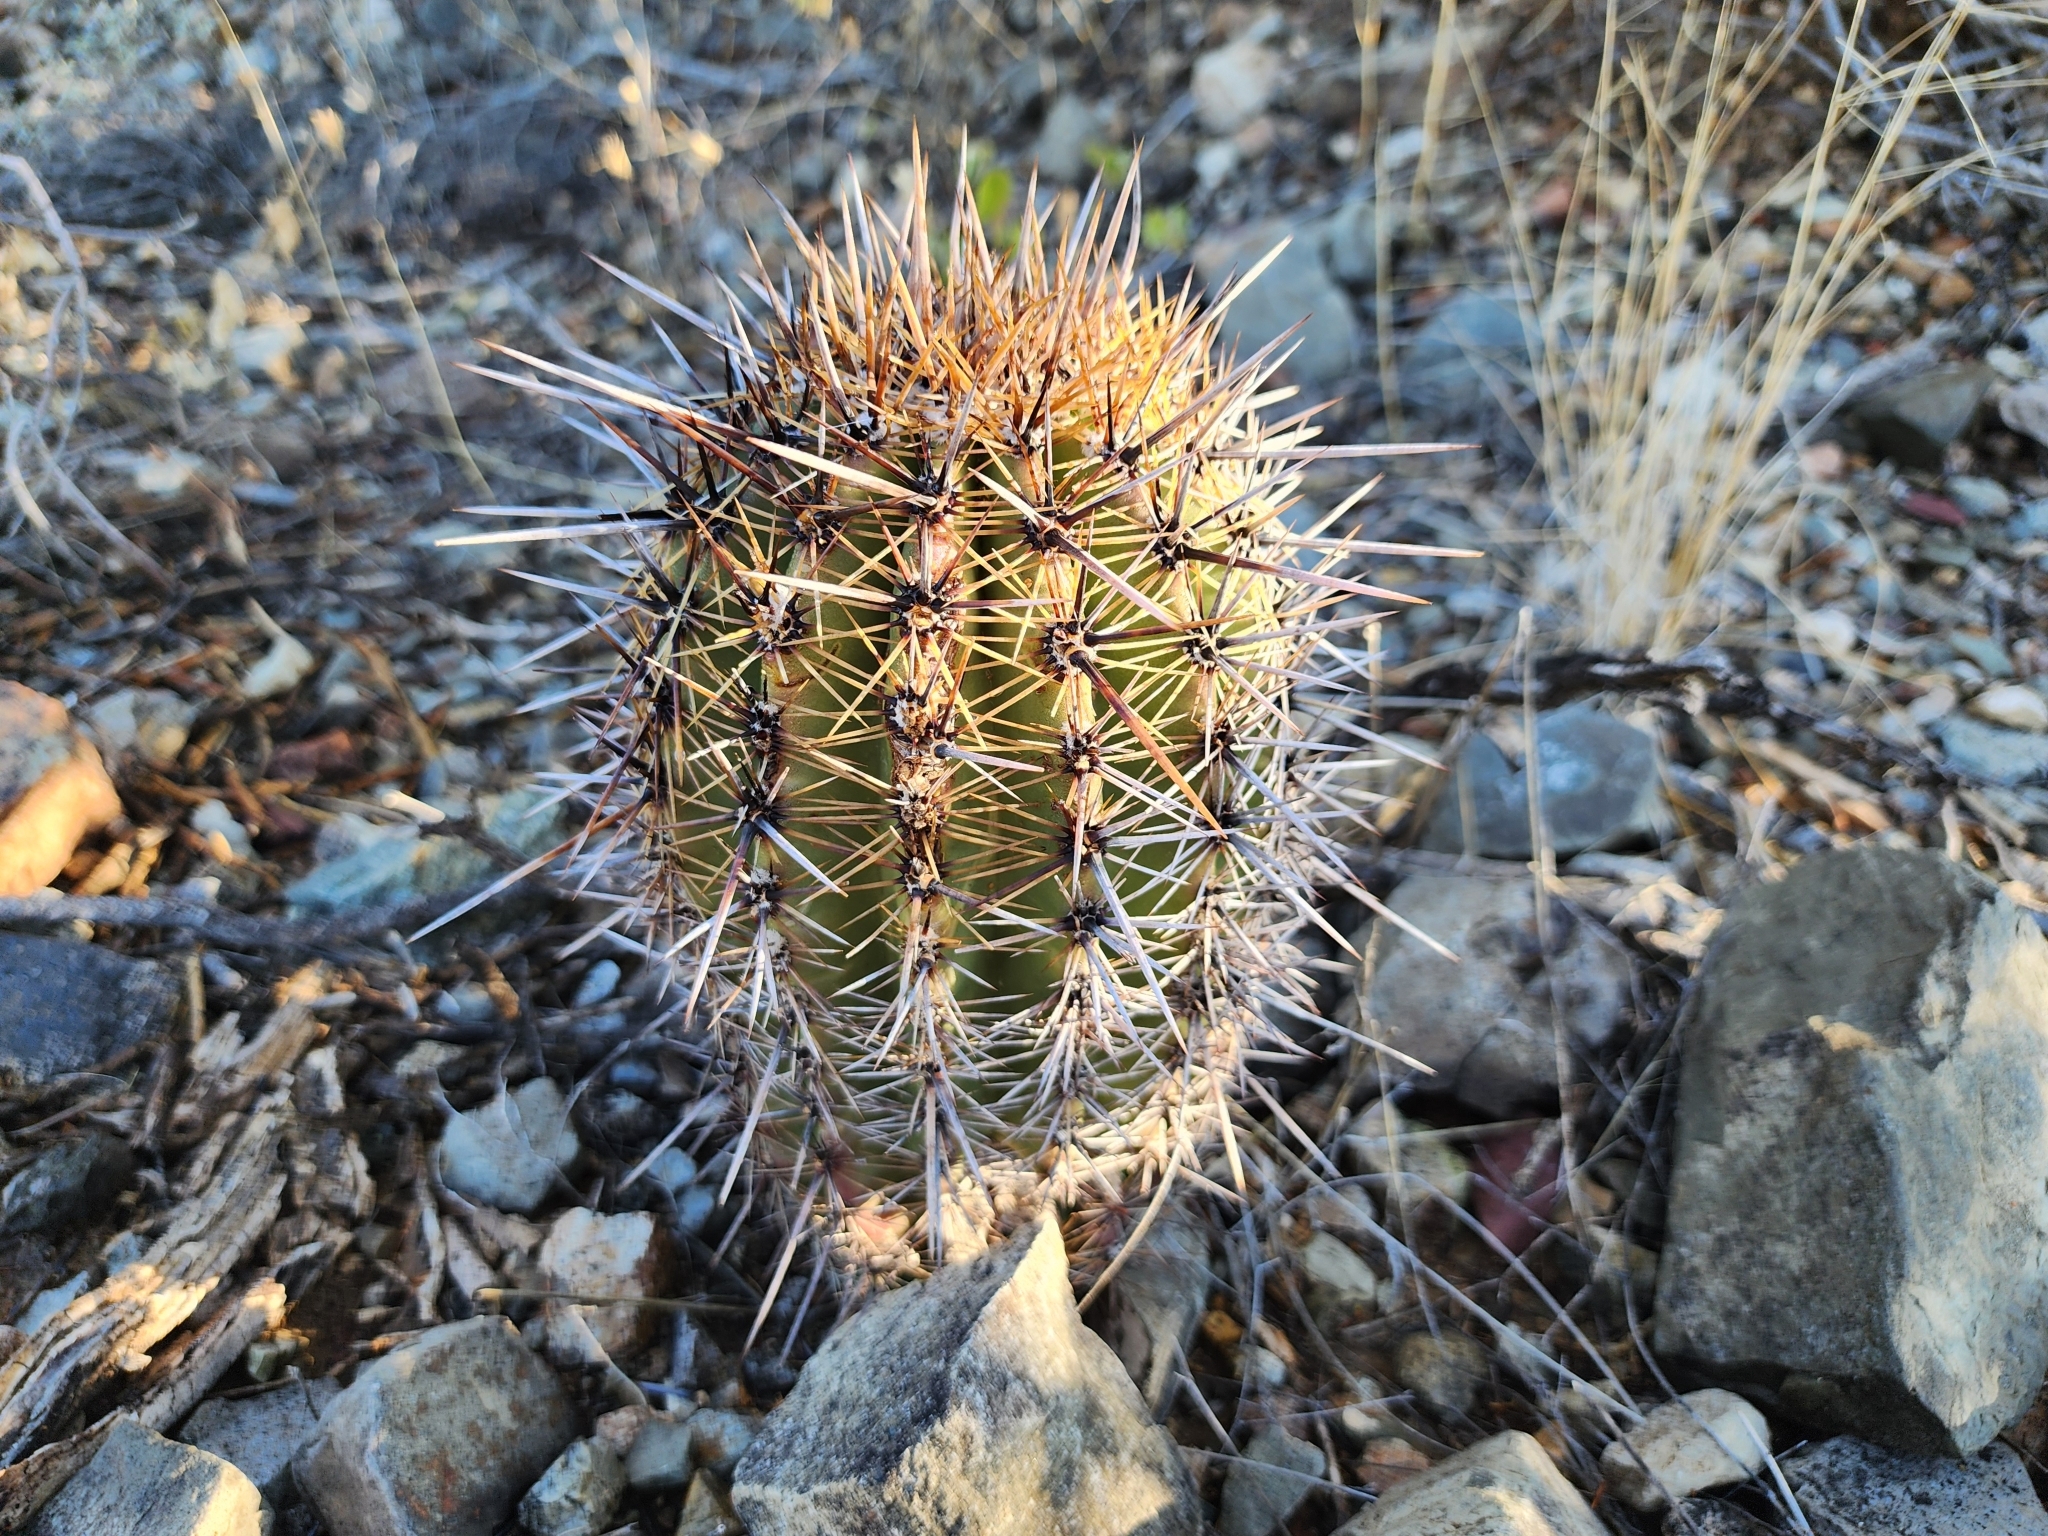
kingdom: Plantae
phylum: Tracheophyta
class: Magnoliopsida
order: Caryophyllales
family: Cactaceae
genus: Carnegiea
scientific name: Carnegiea gigantea
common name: Saguaro
